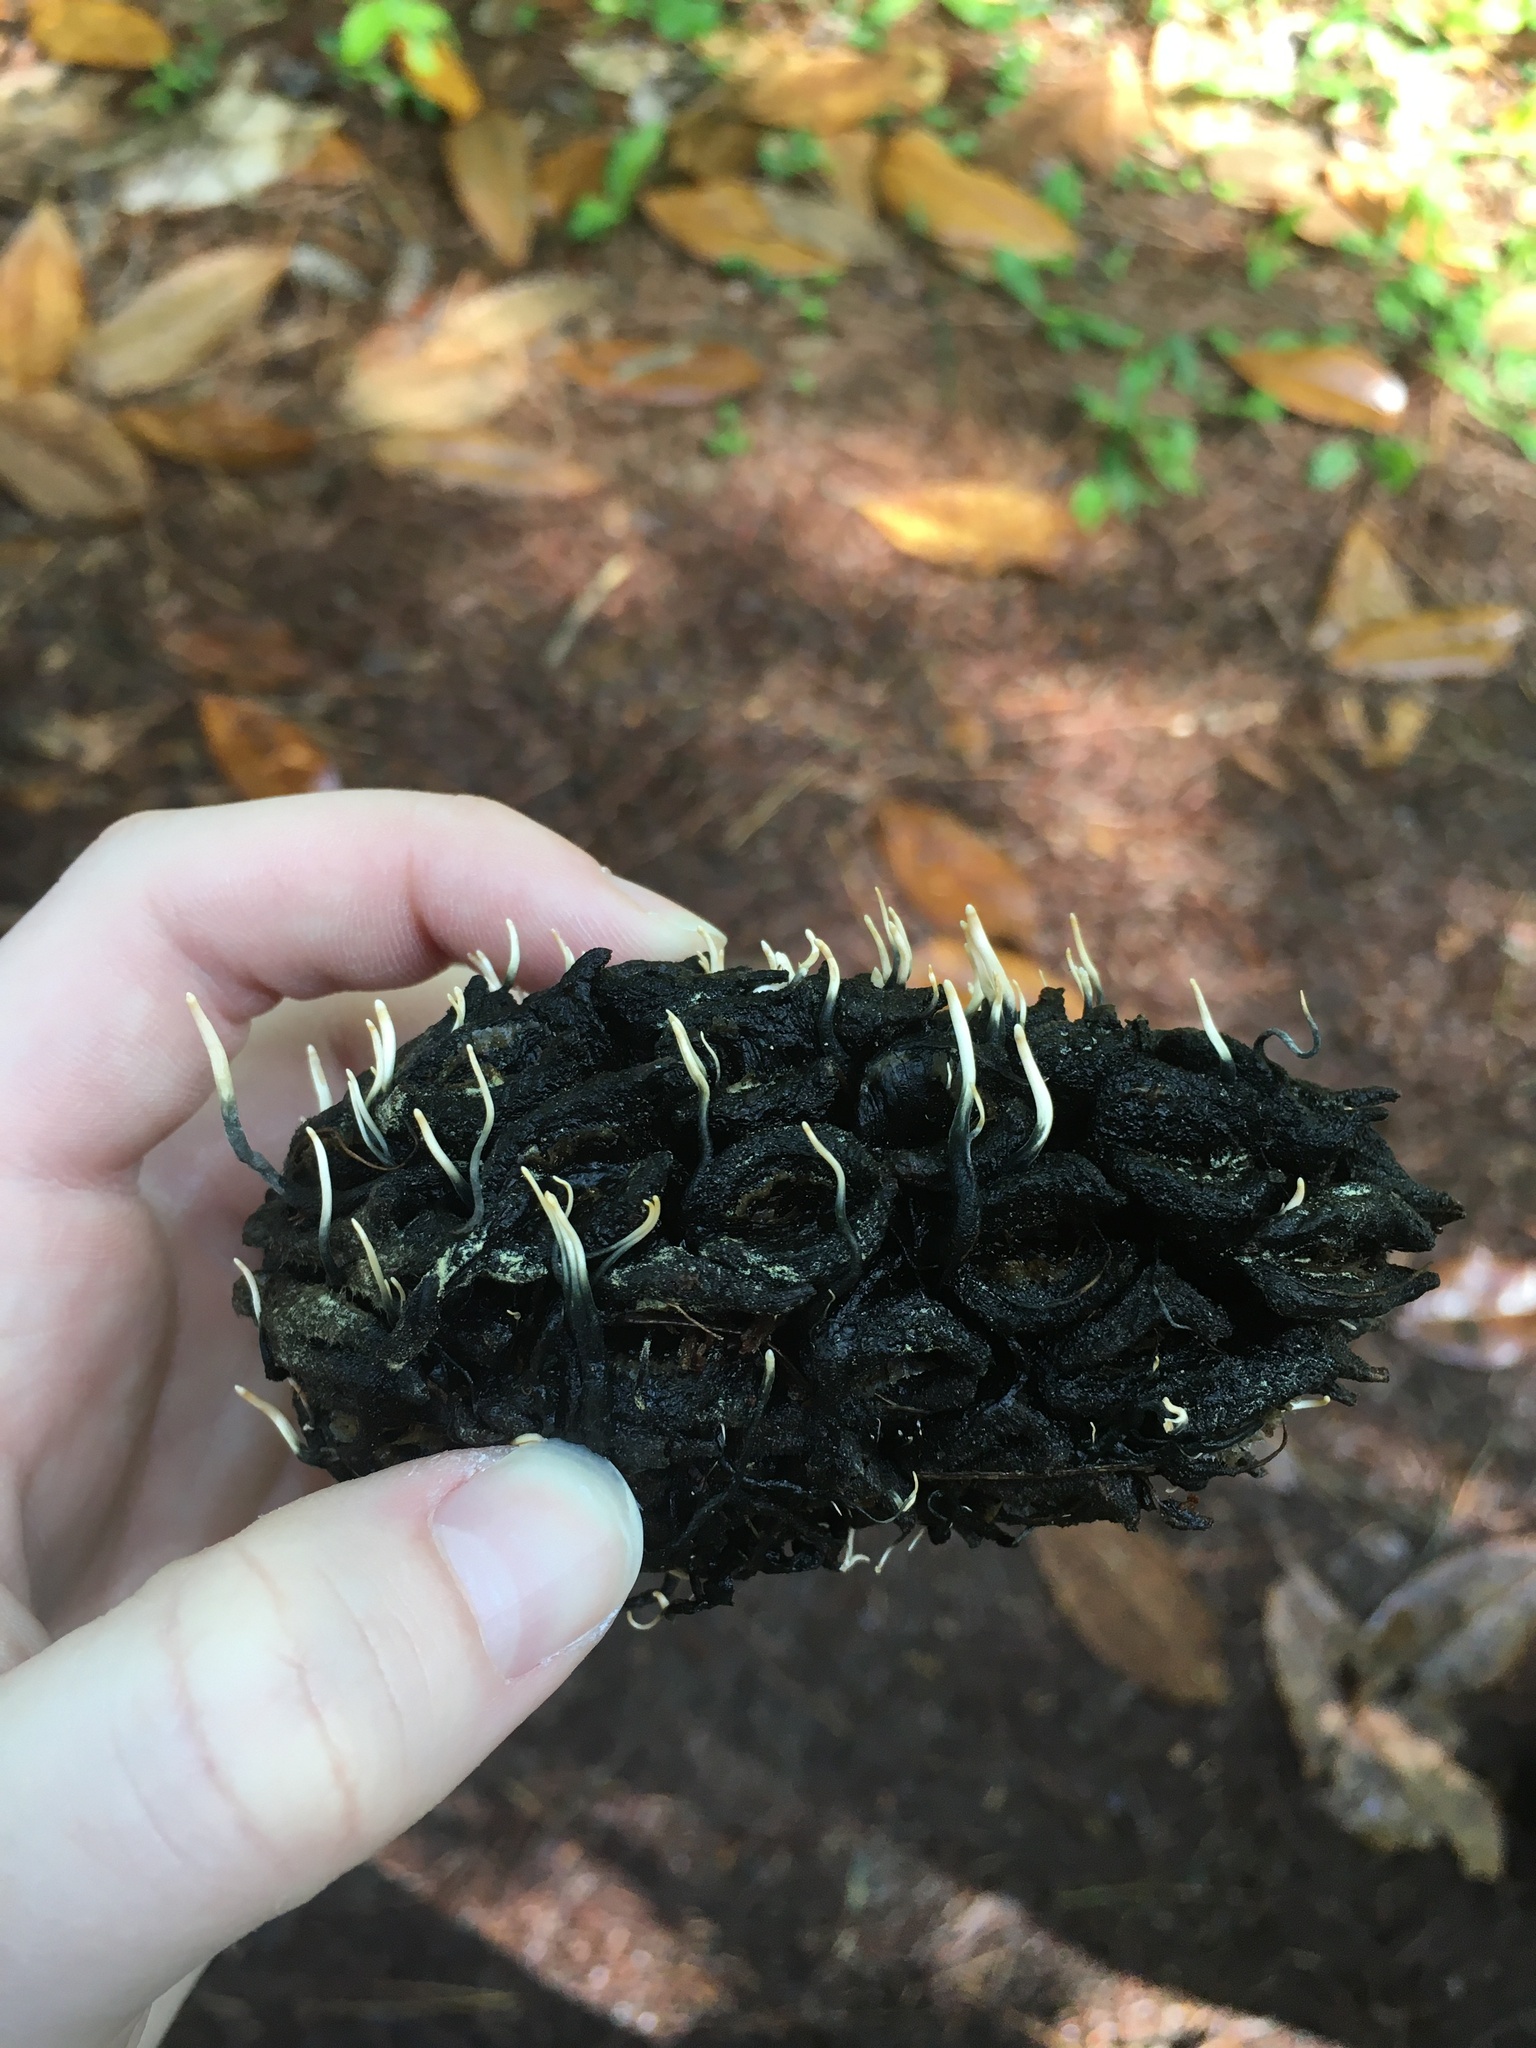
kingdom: Fungi
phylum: Ascomycota
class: Sordariomycetes
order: Xylariales
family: Xylariaceae
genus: Xylaria
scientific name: Xylaria magnoliae
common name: Magnolia-cone xylaria
